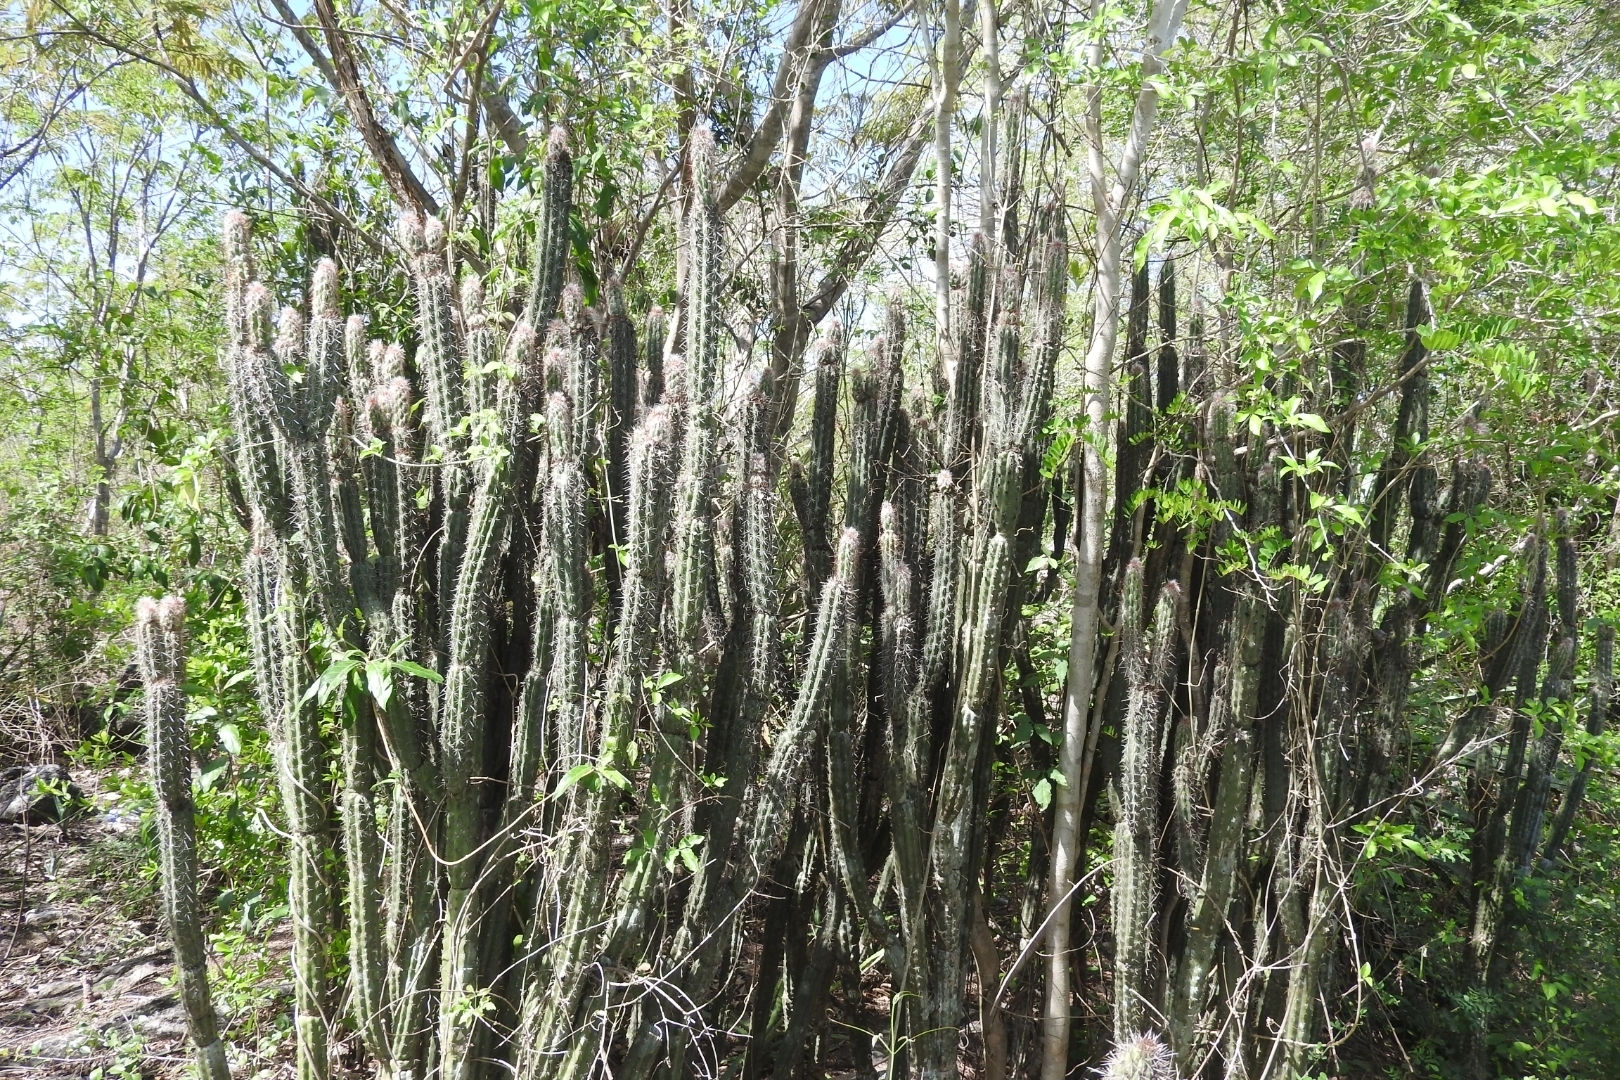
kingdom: Plantae
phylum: Tracheophyta
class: Magnoliopsida
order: Caryophyllales
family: Cactaceae
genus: Pilosocereus
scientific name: Pilosocereus gaumeri
